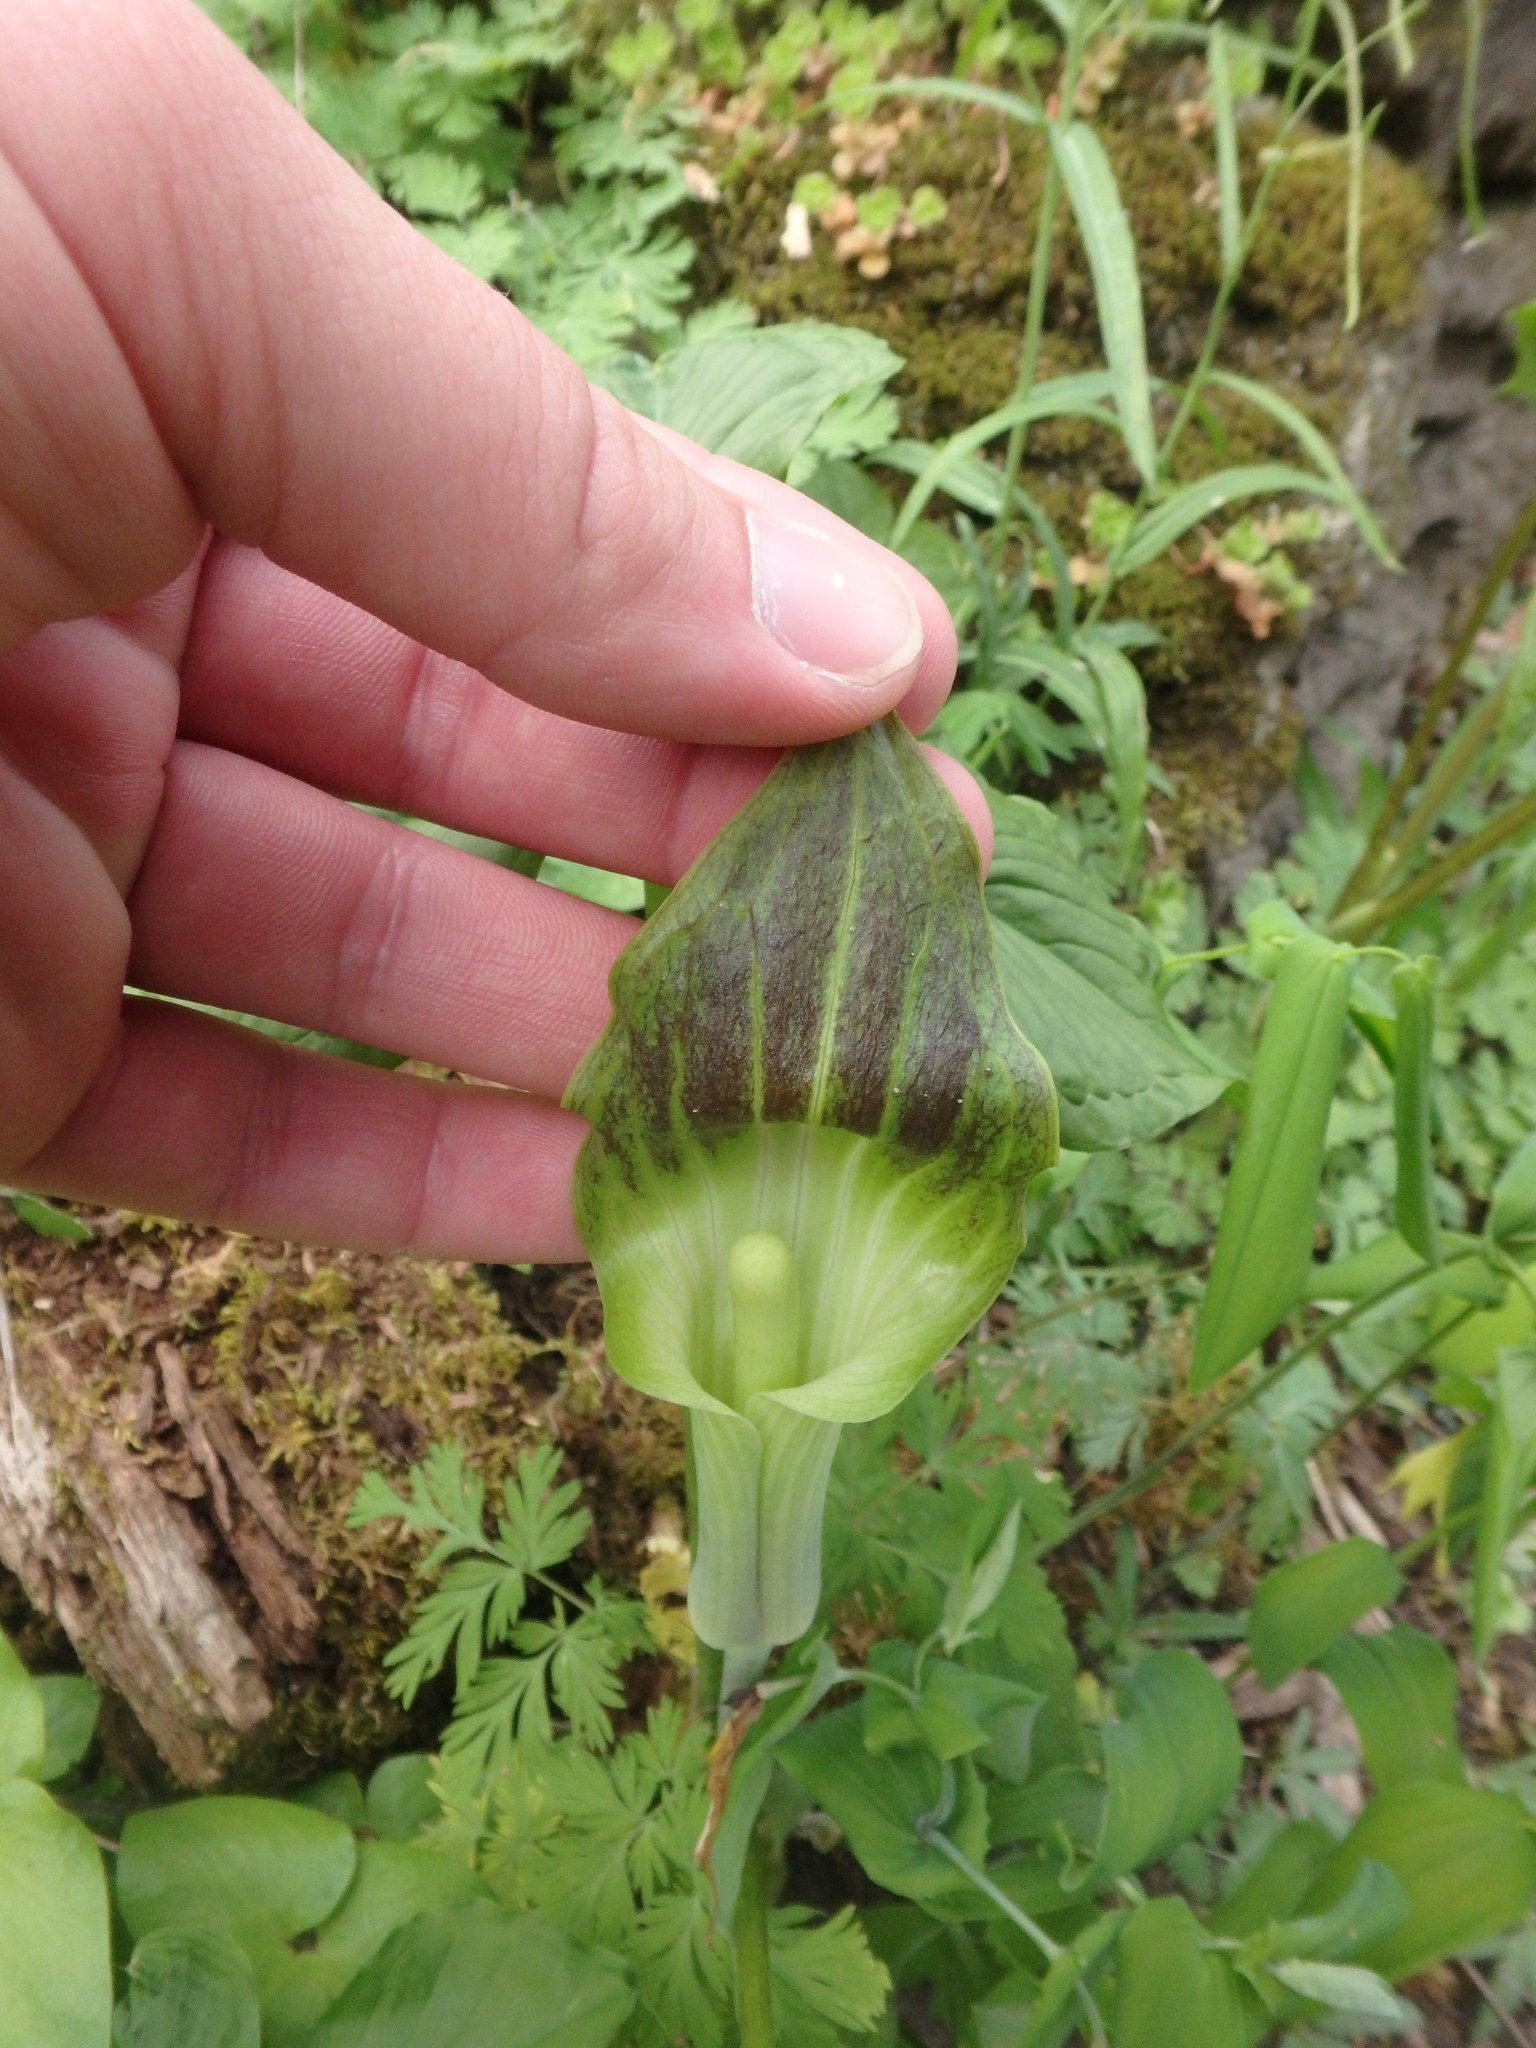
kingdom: Plantae
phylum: Tracheophyta
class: Liliopsida
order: Alismatales
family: Araceae
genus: Arisaema
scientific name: Arisaema triphyllum
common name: Jack-in-the-pulpit
